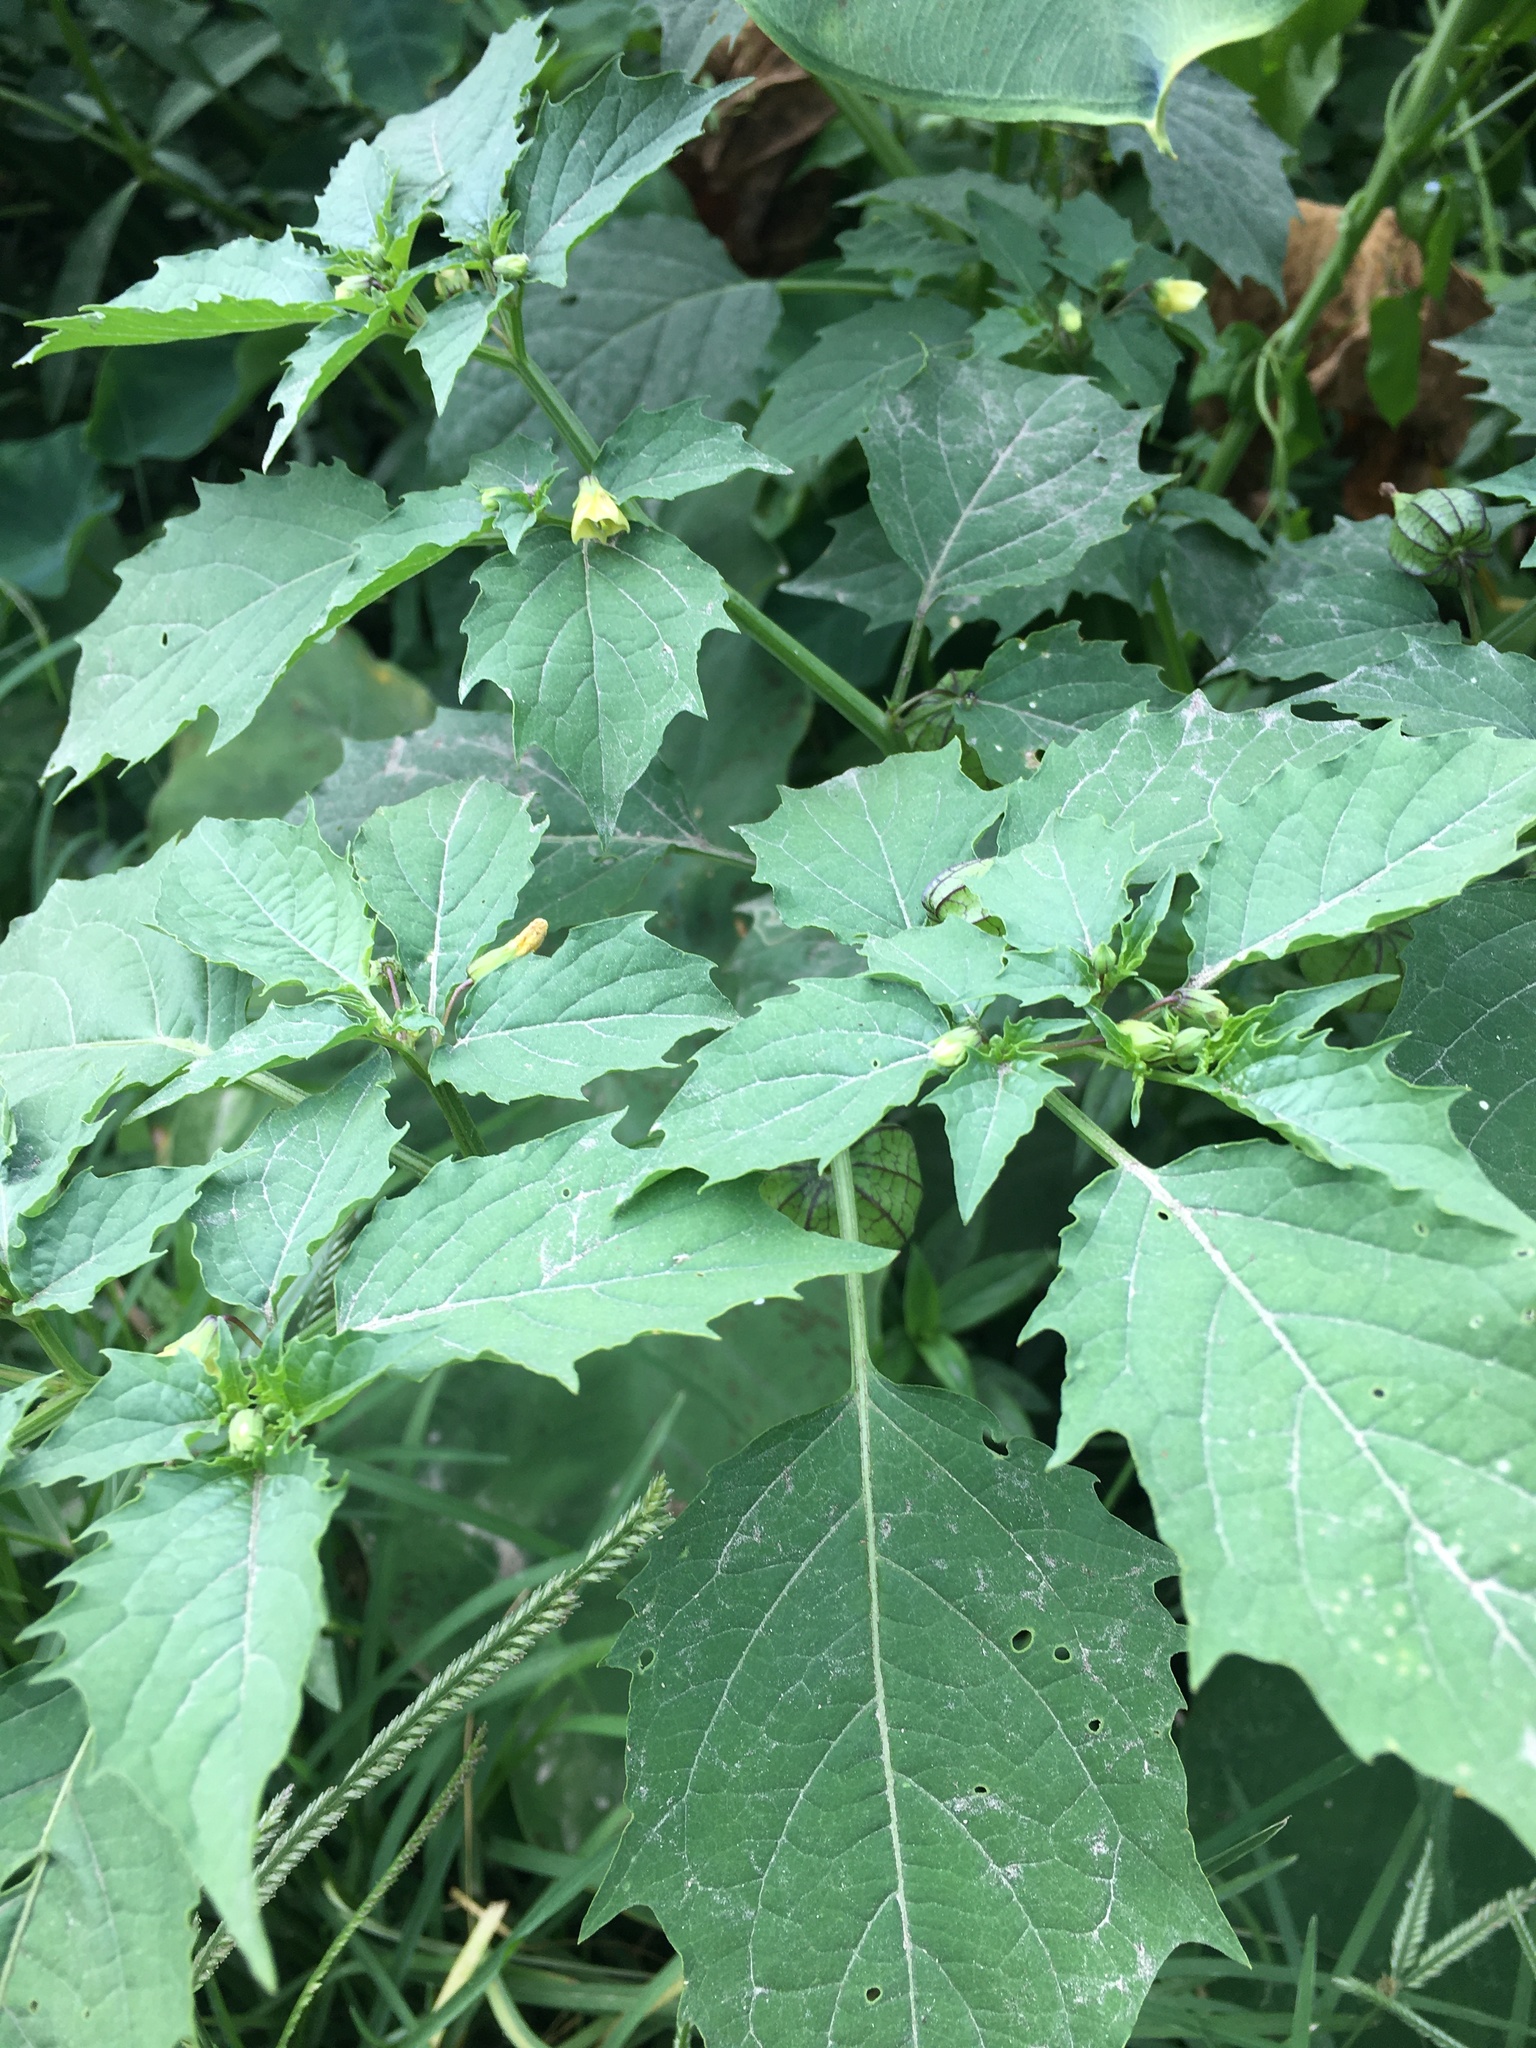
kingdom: Plantae
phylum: Tracheophyta
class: Magnoliopsida
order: Solanales
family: Solanaceae
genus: Physalis
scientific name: Physalis angulata
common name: Angular winter-cherry
